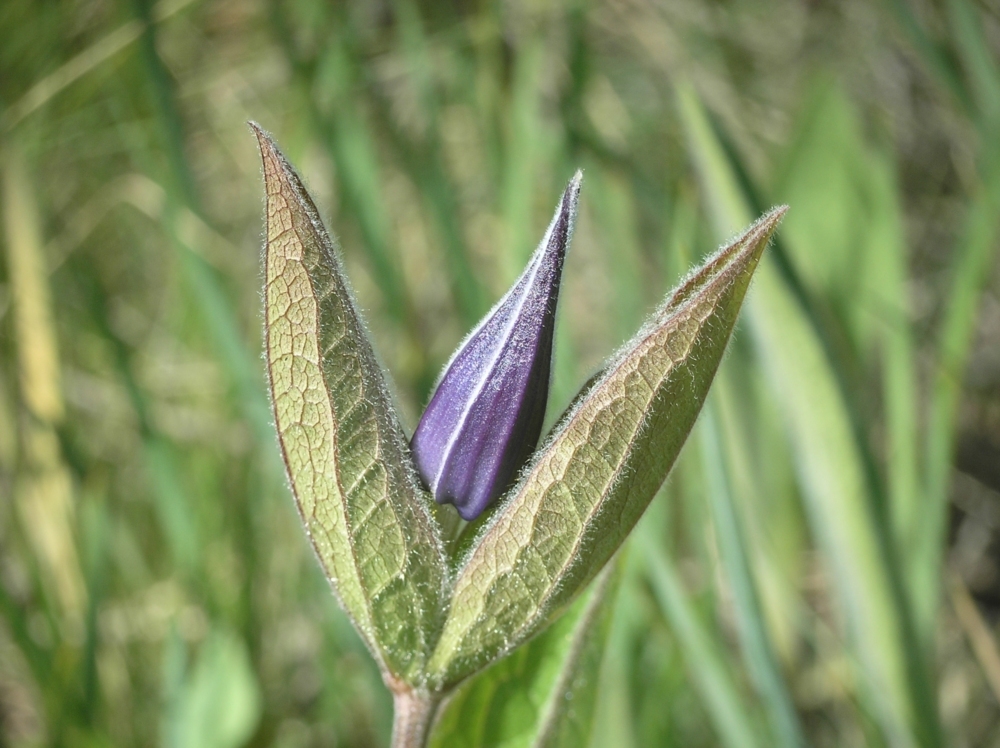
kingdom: Plantae
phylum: Tracheophyta
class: Magnoliopsida
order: Ranunculales
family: Ranunculaceae
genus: Clematis
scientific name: Clematis integrifolia
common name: Solitary clematis
